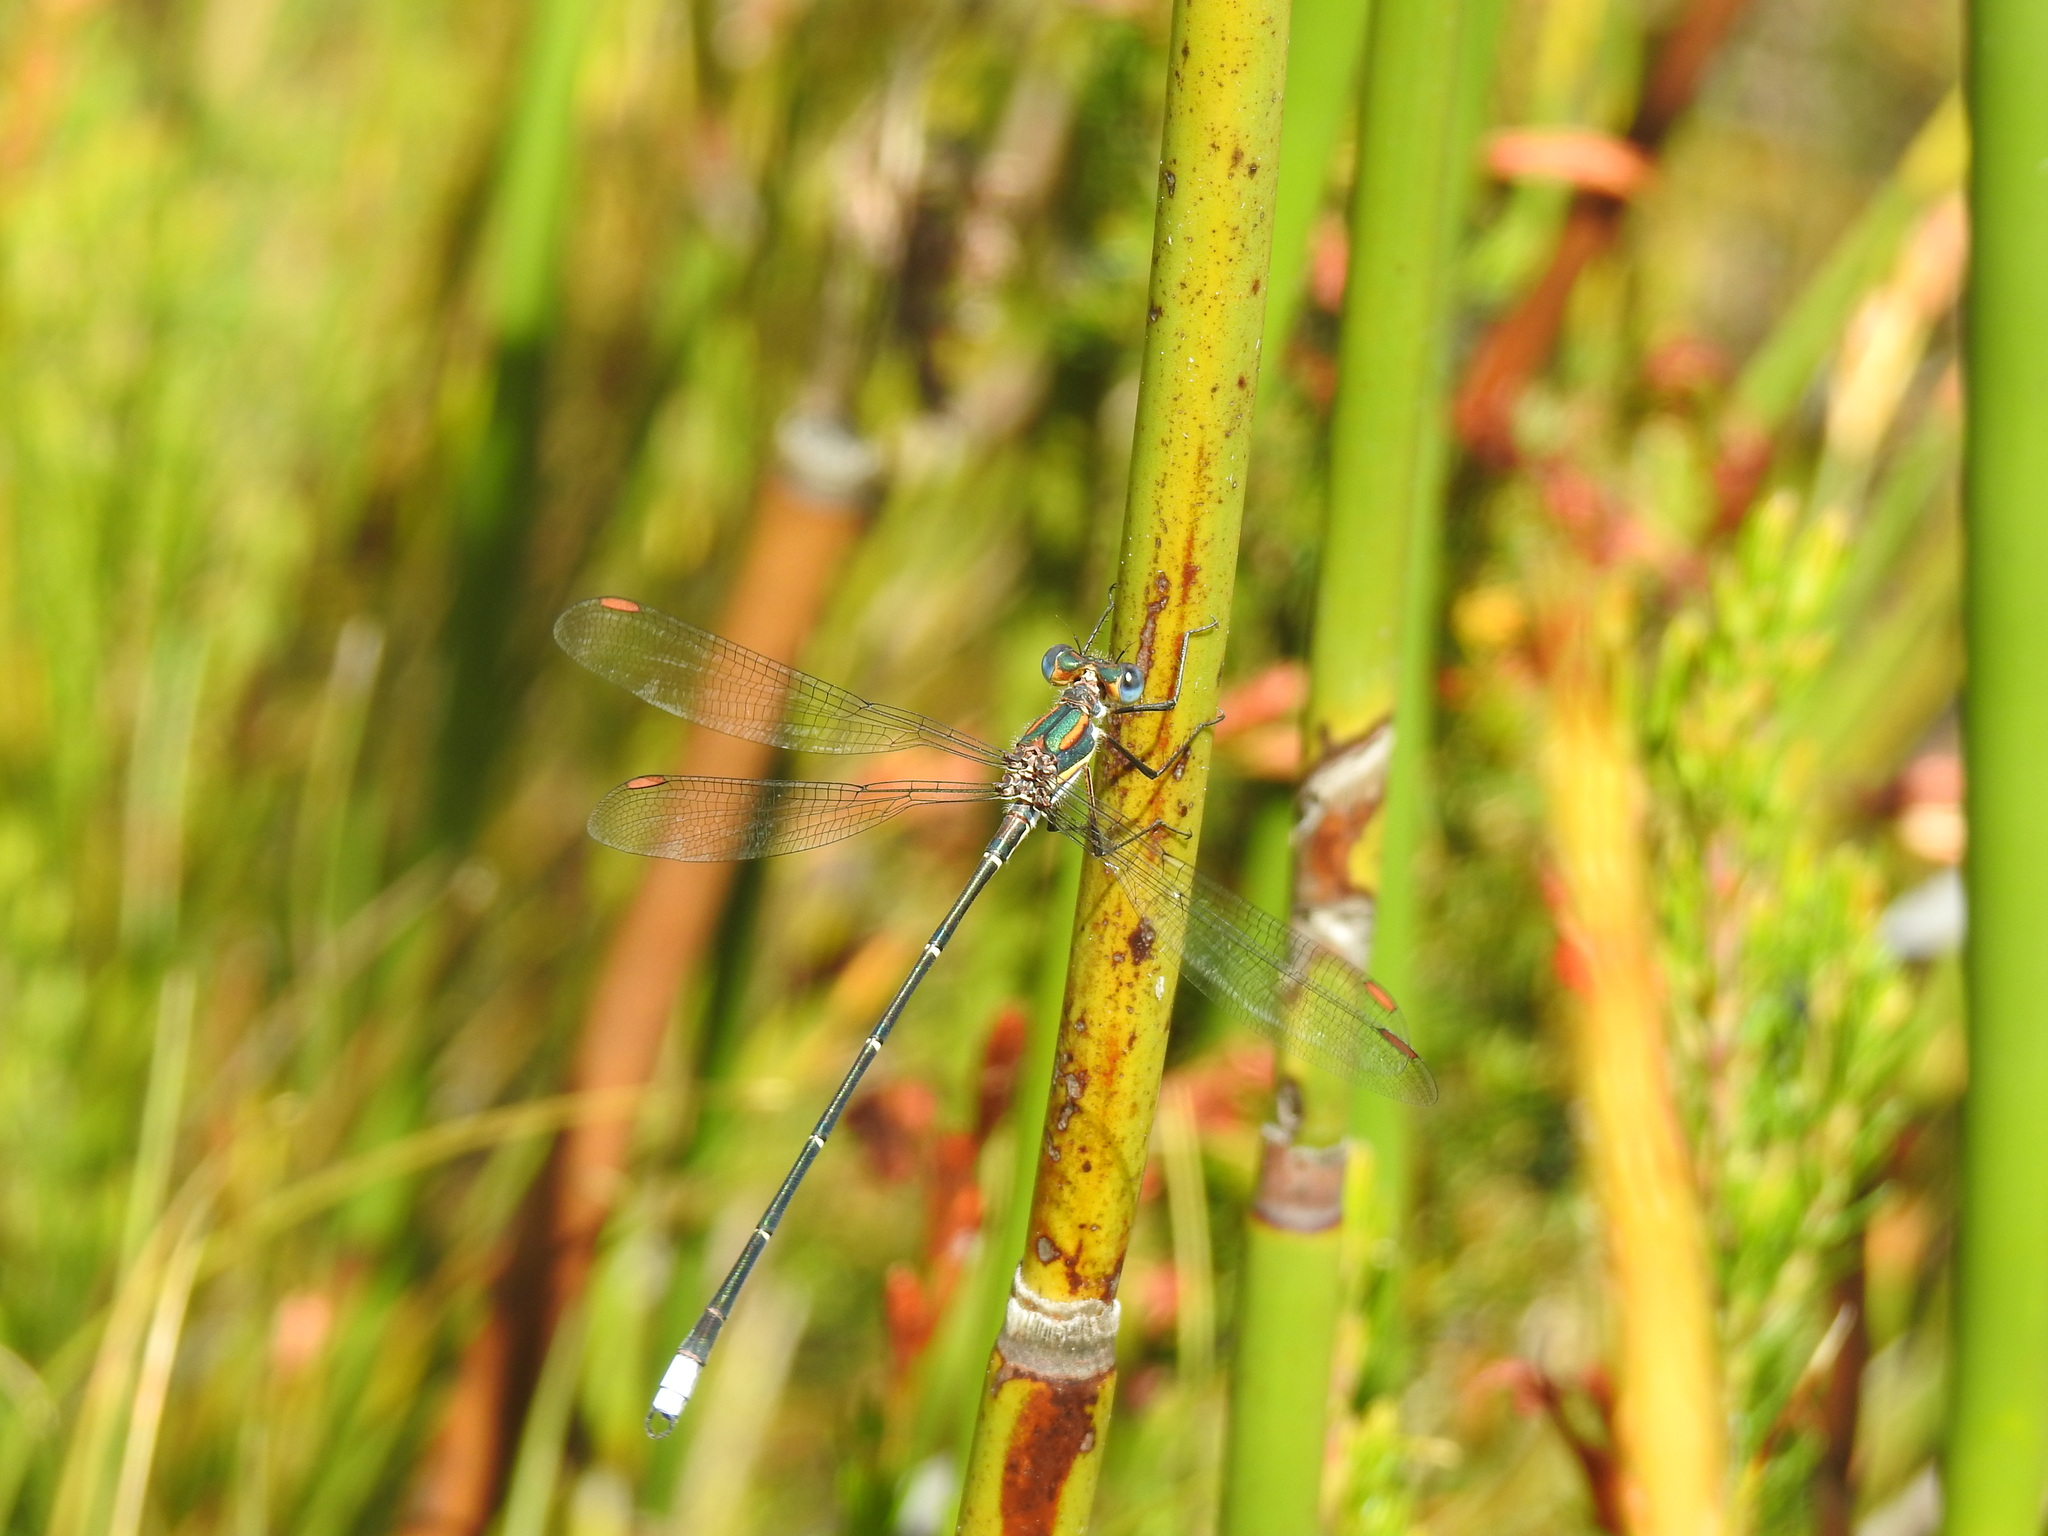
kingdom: Animalia
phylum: Arthropoda
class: Insecta
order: Odonata
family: Synlestidae
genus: Chlorolestes
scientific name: Chlorolestes conspicuus
